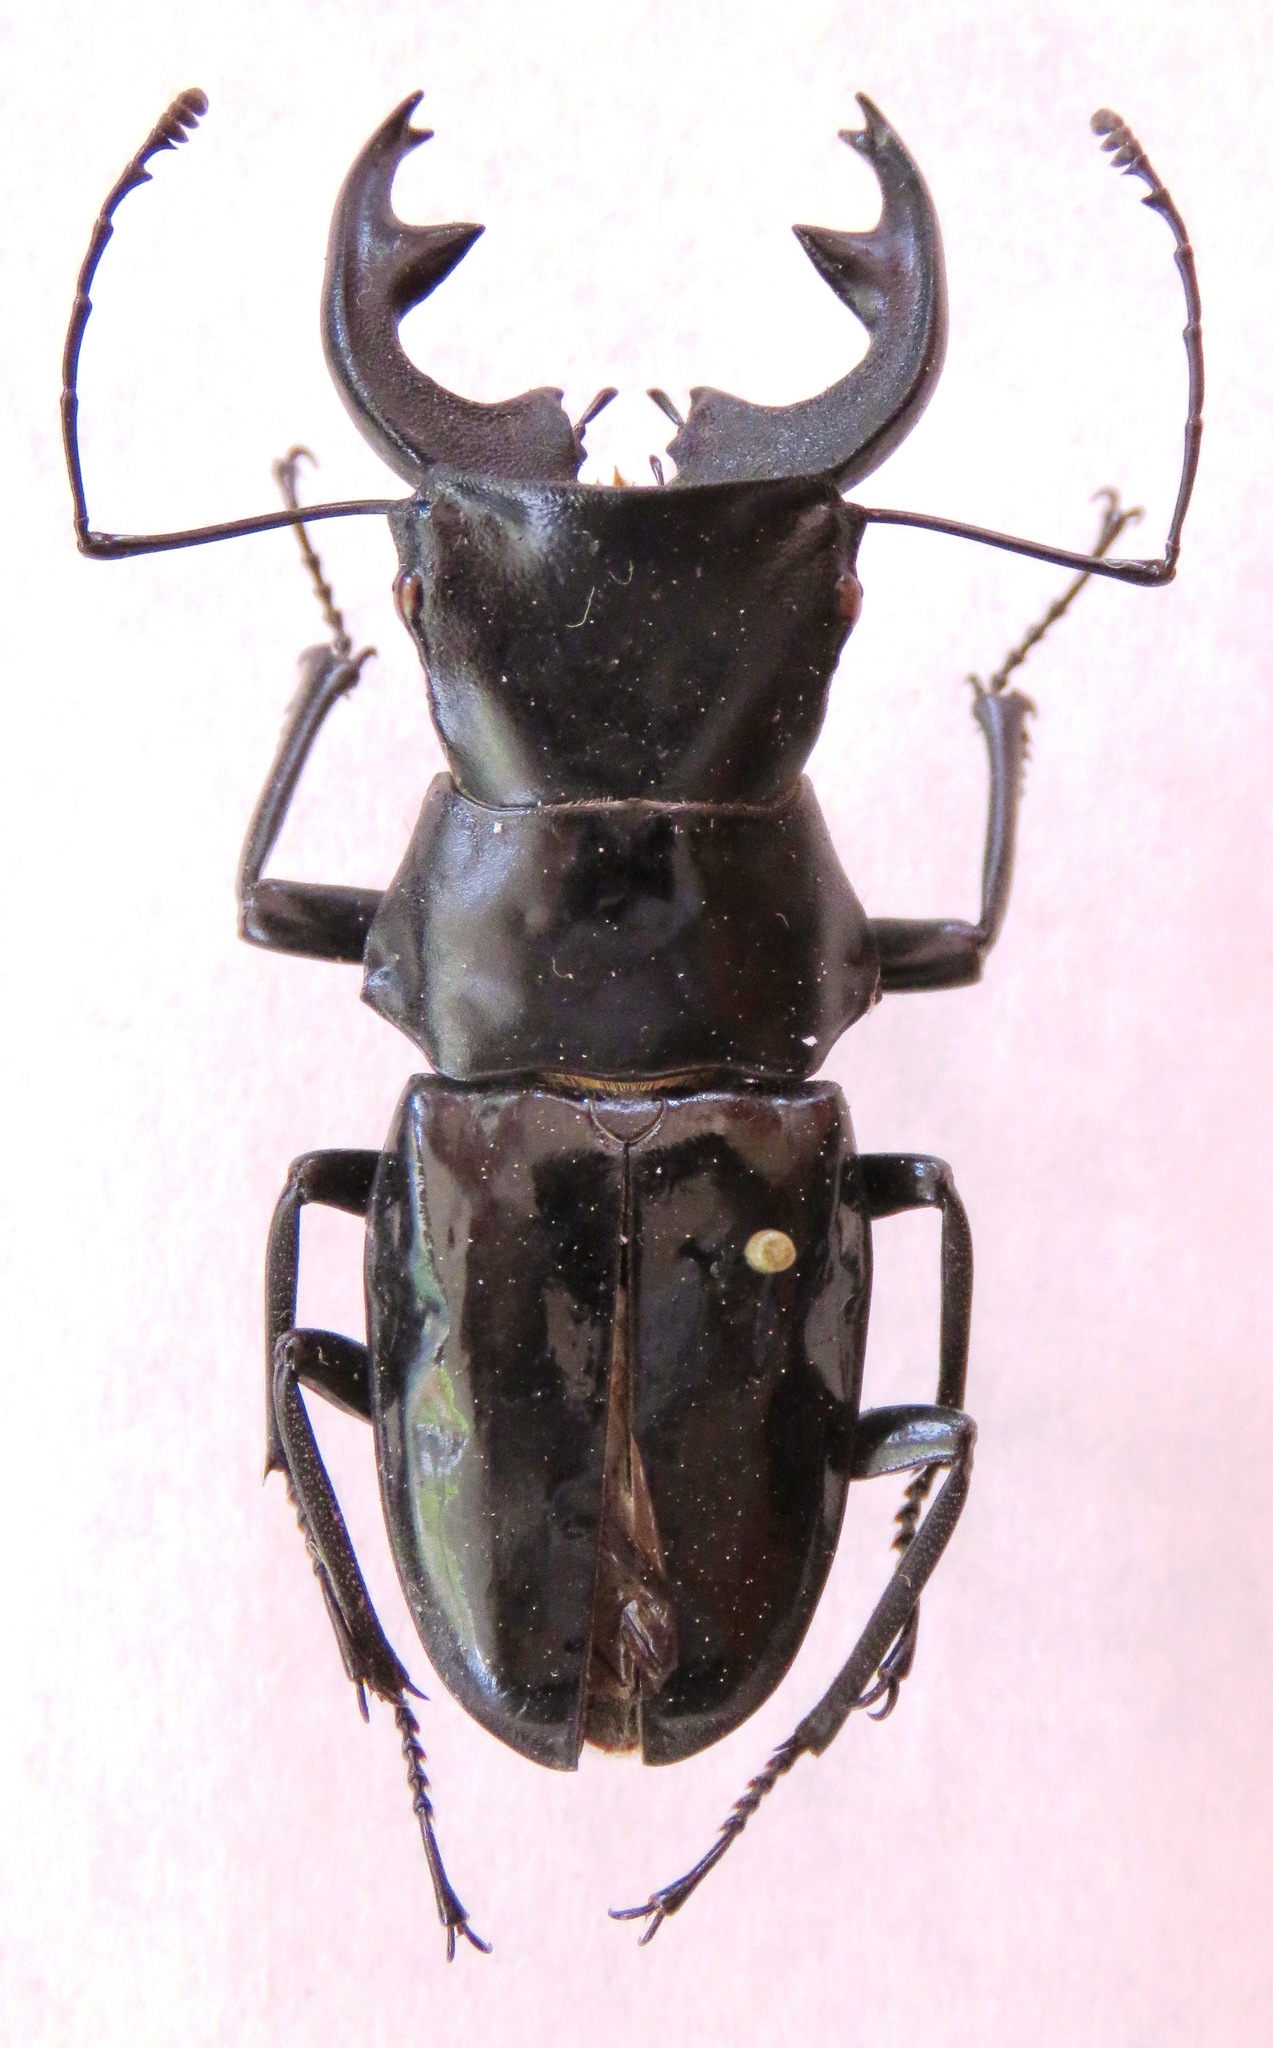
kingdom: Animalia
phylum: Arthropoda
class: Insecta
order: Coleoptera
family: Lucanidae
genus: Cantharolethrus
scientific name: Cantharolethrus homoderoides
